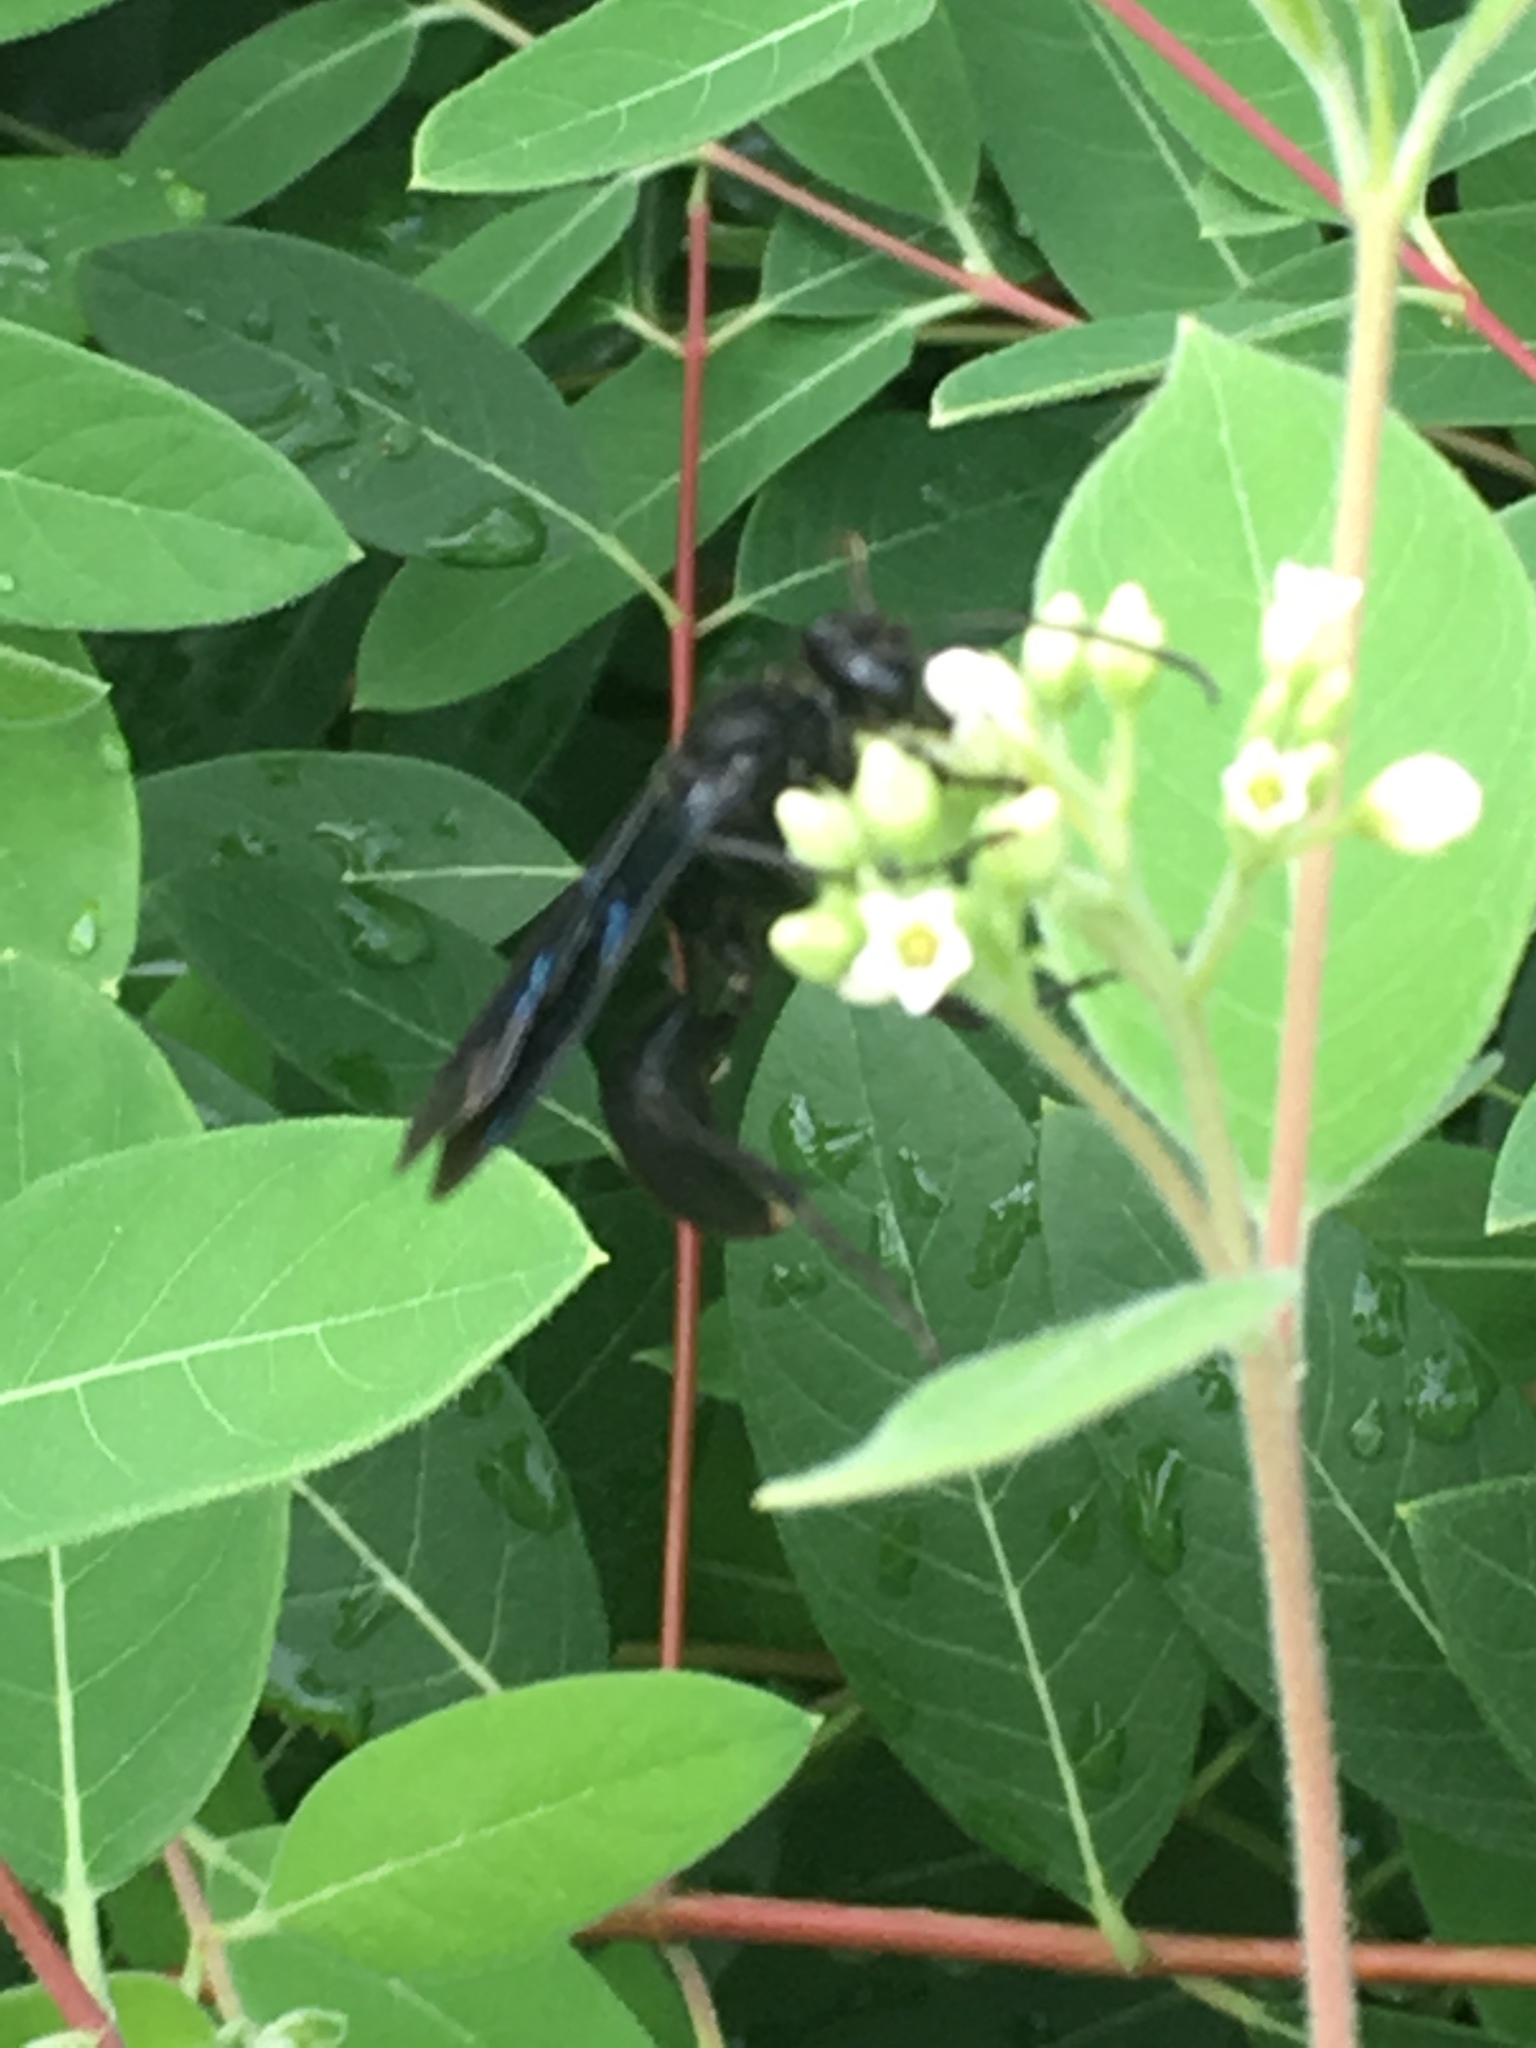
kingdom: Animalia
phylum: Arthropoda
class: Insecta
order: Hymenoptera
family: Sphecidae
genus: Sphex
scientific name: Sphex pensylvanicus
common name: Great black digger wasp
